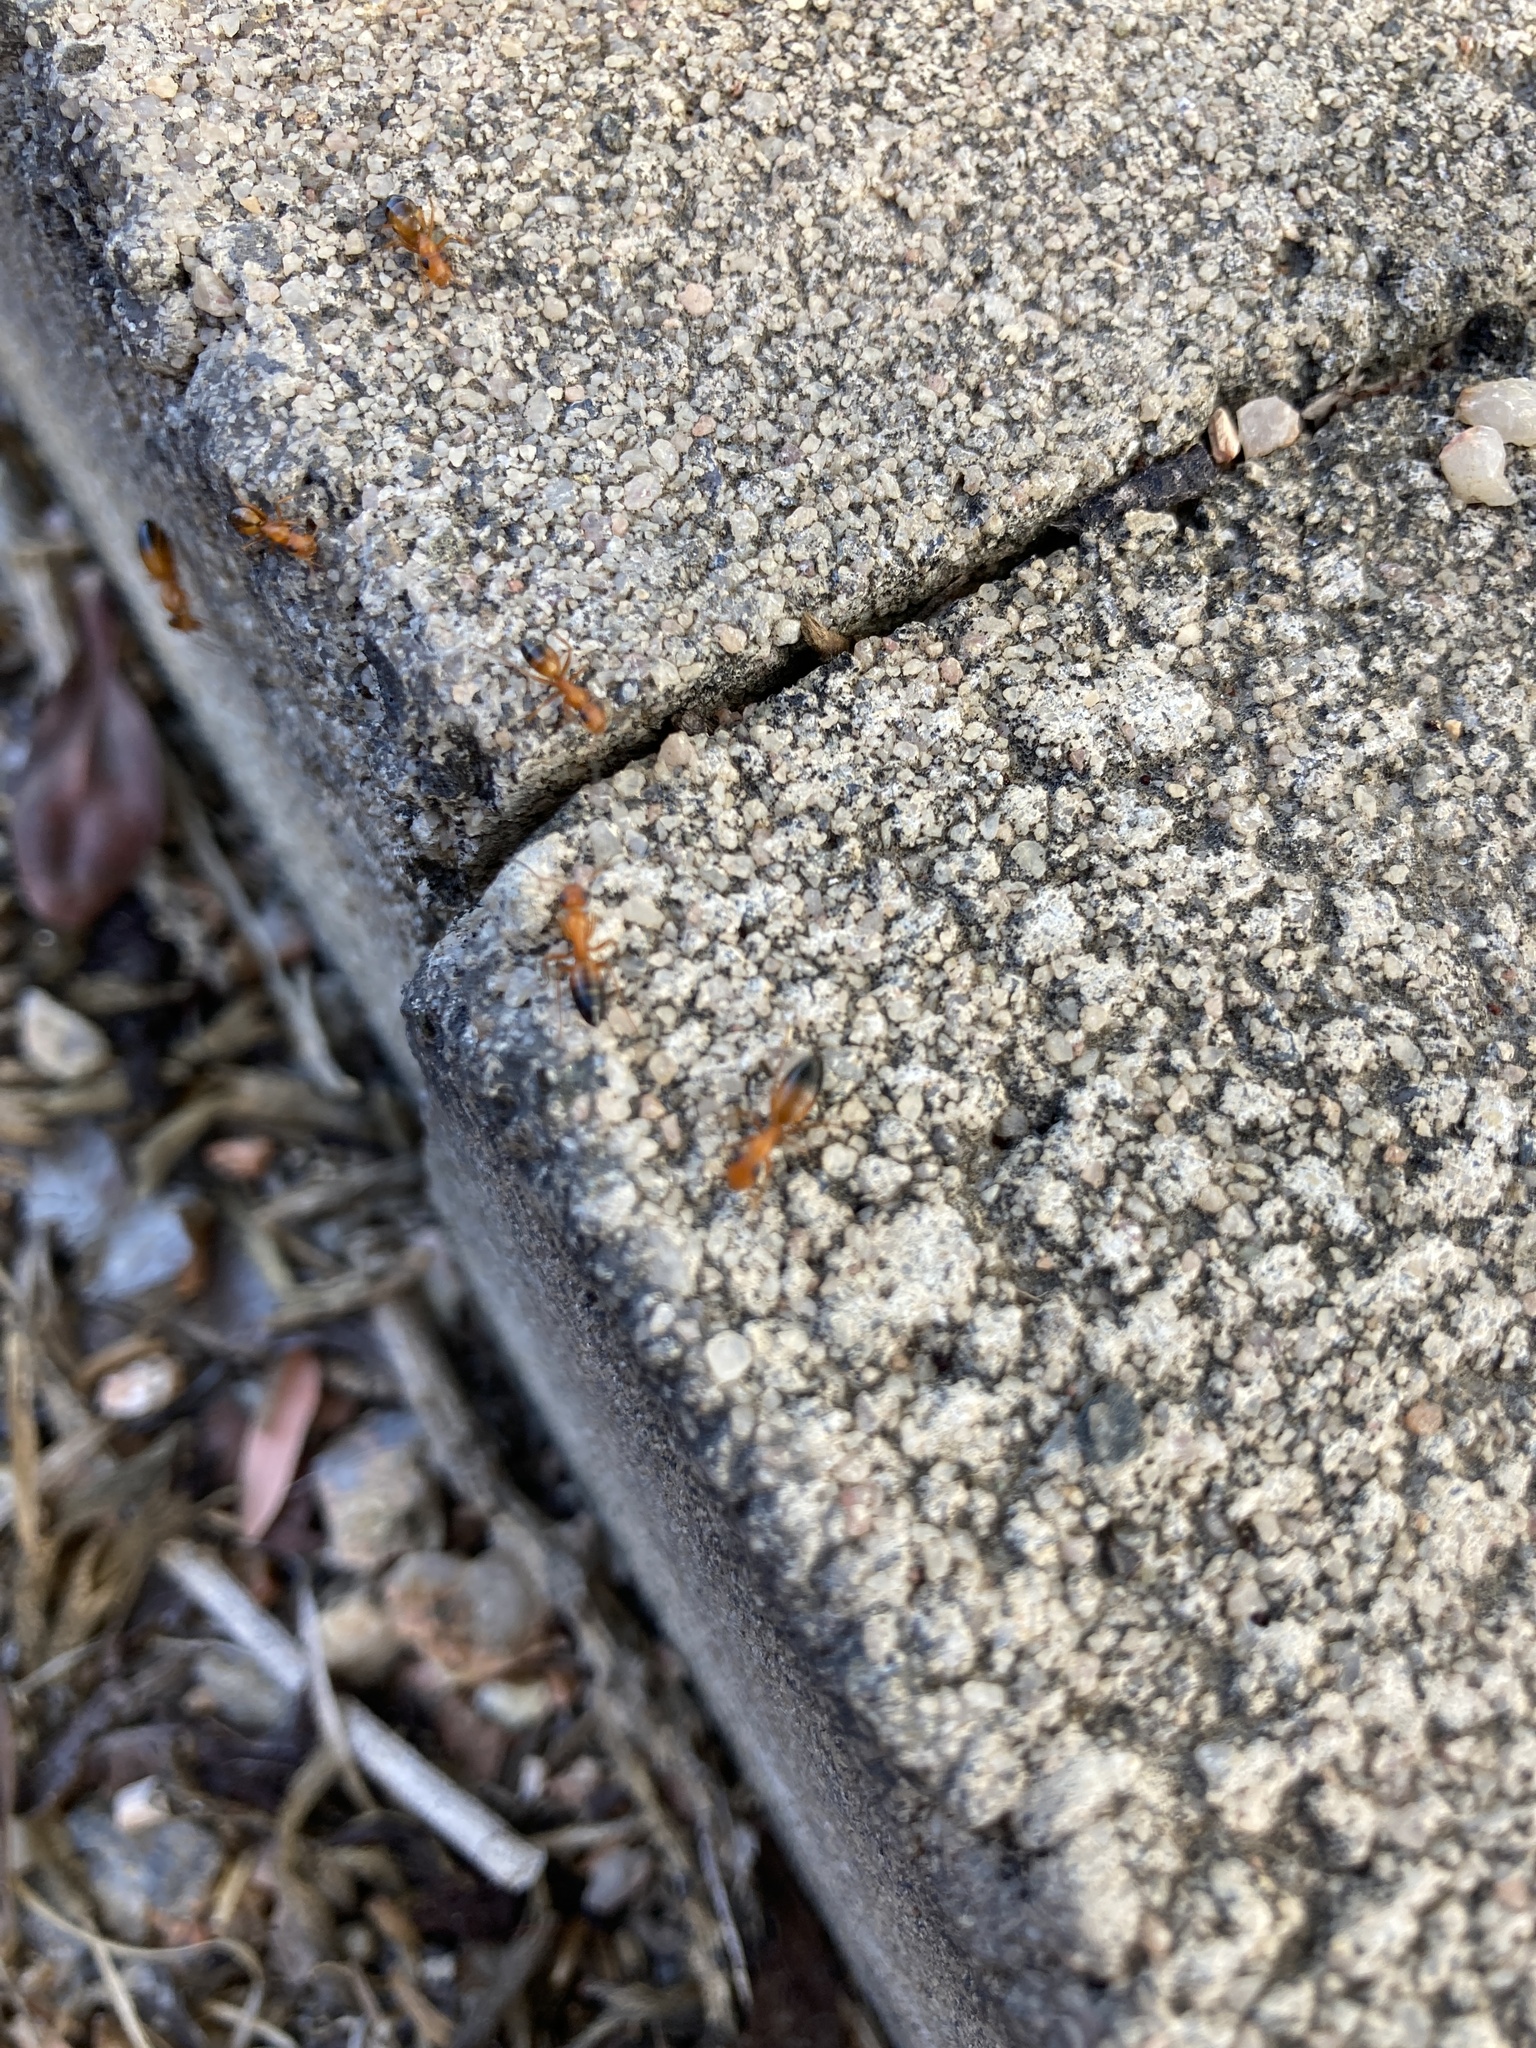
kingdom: Animalia
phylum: Arthropoda
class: Insecta
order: Hymenoptera
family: Formicidae
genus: Opisthopsis
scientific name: Opisthopsis haddoni
